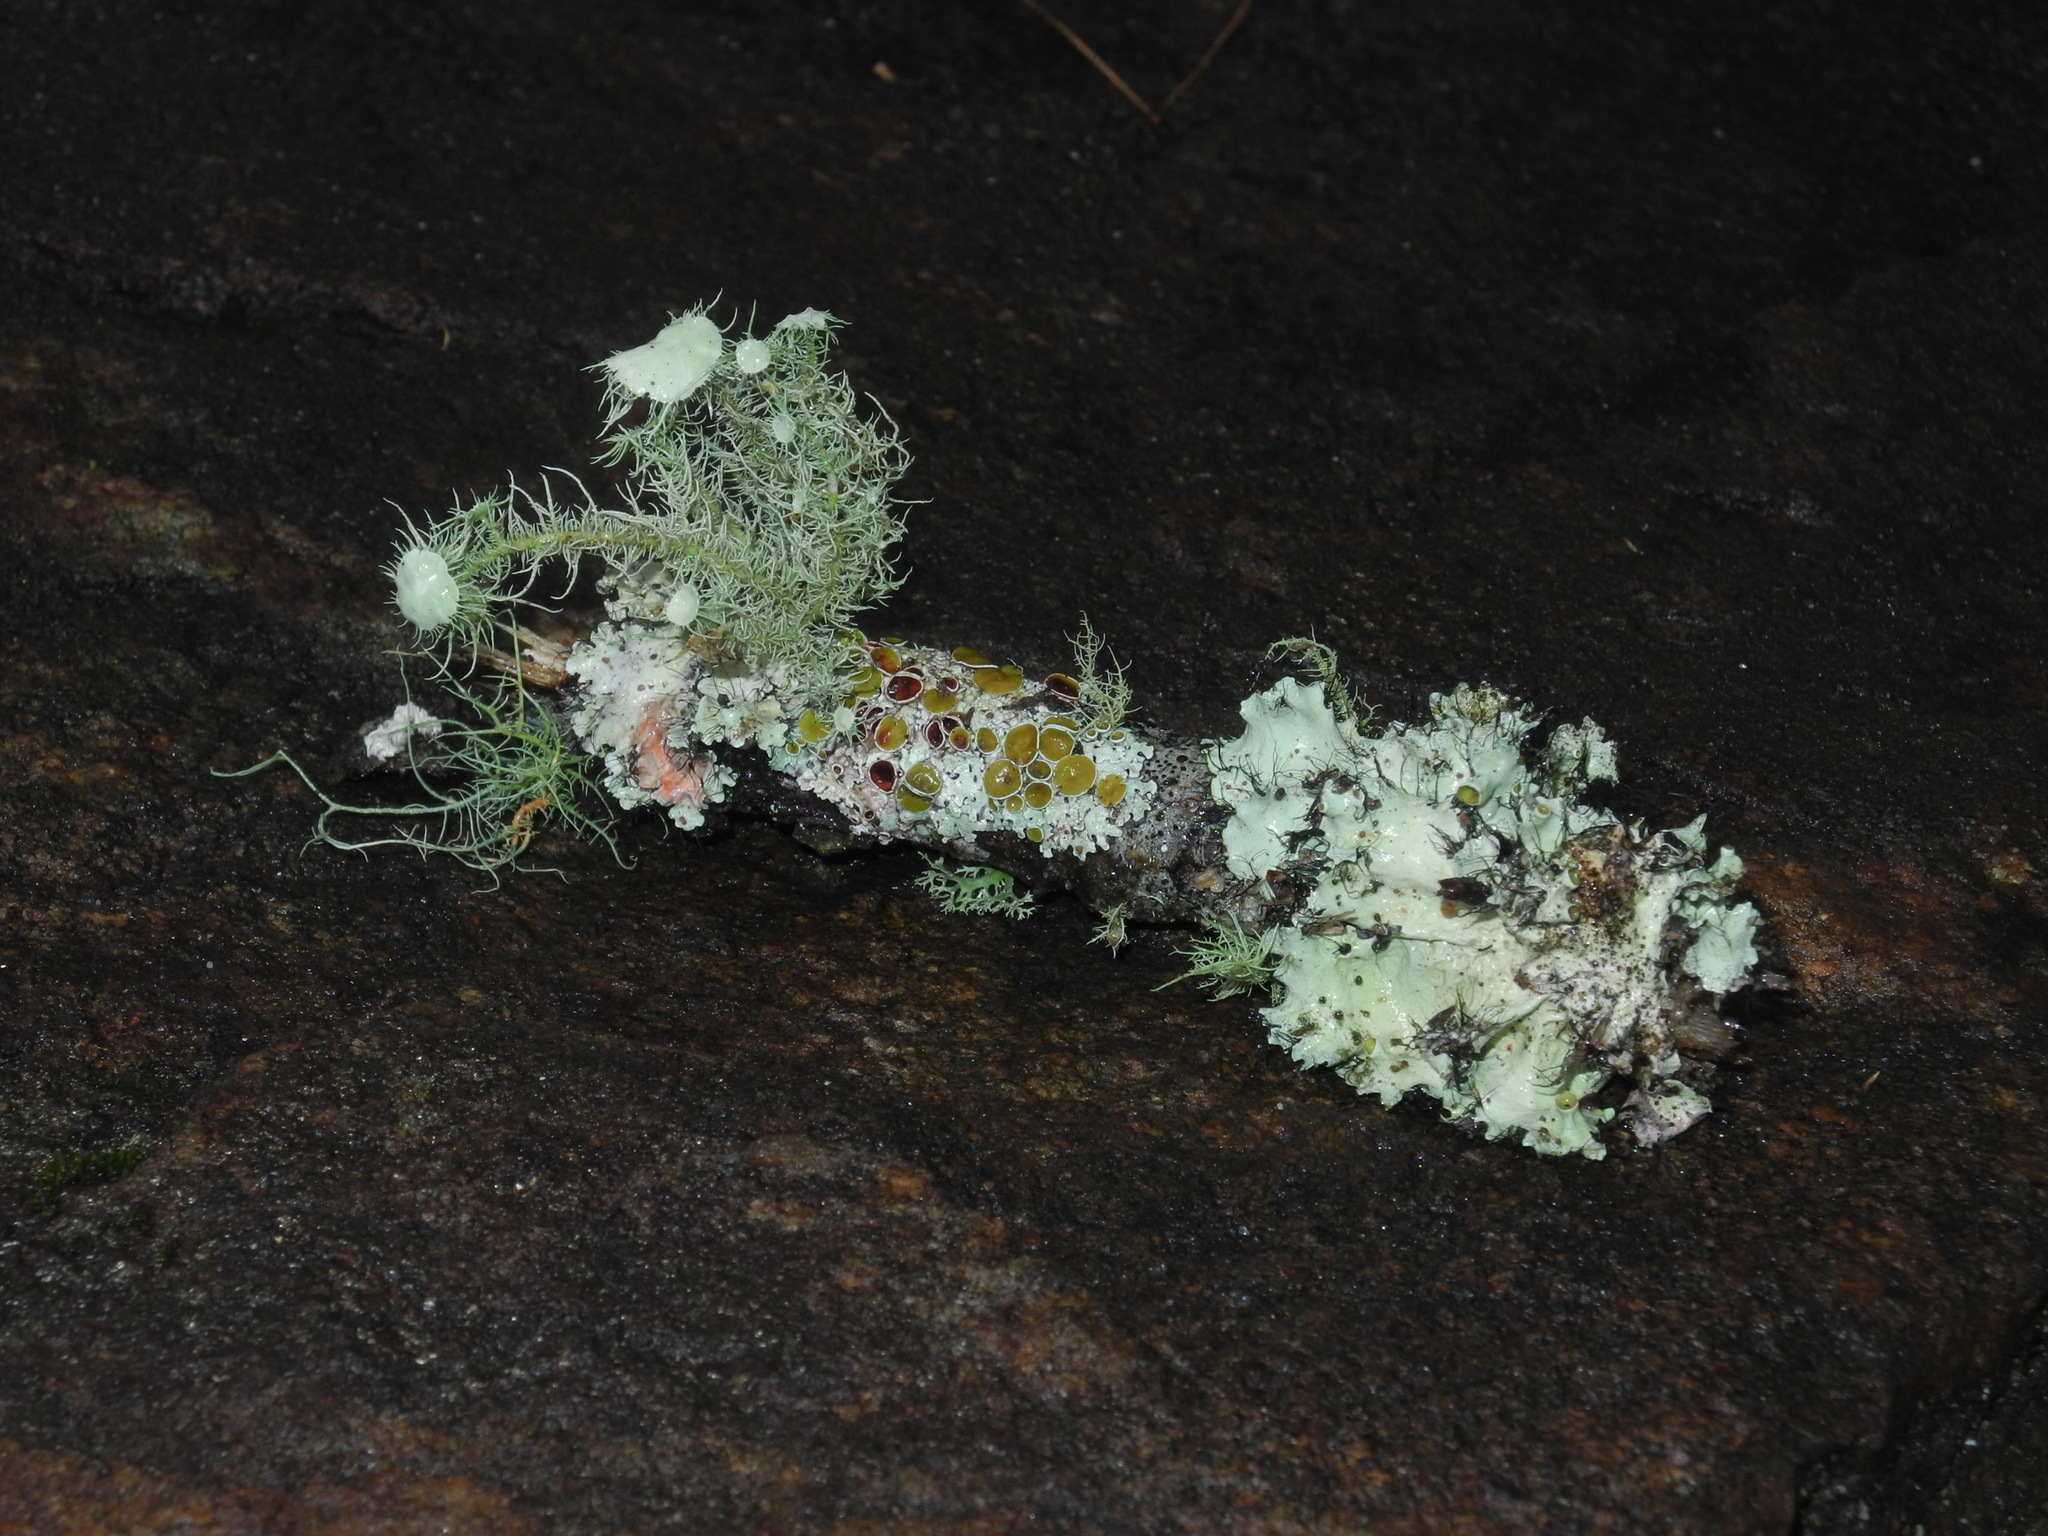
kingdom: Fungi
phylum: Ascomycota
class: Lecanoromycetes
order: Lecanorales
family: Parmeliaceae
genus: Usnea
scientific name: Usnea strigosa
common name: Bushy beard lichen
